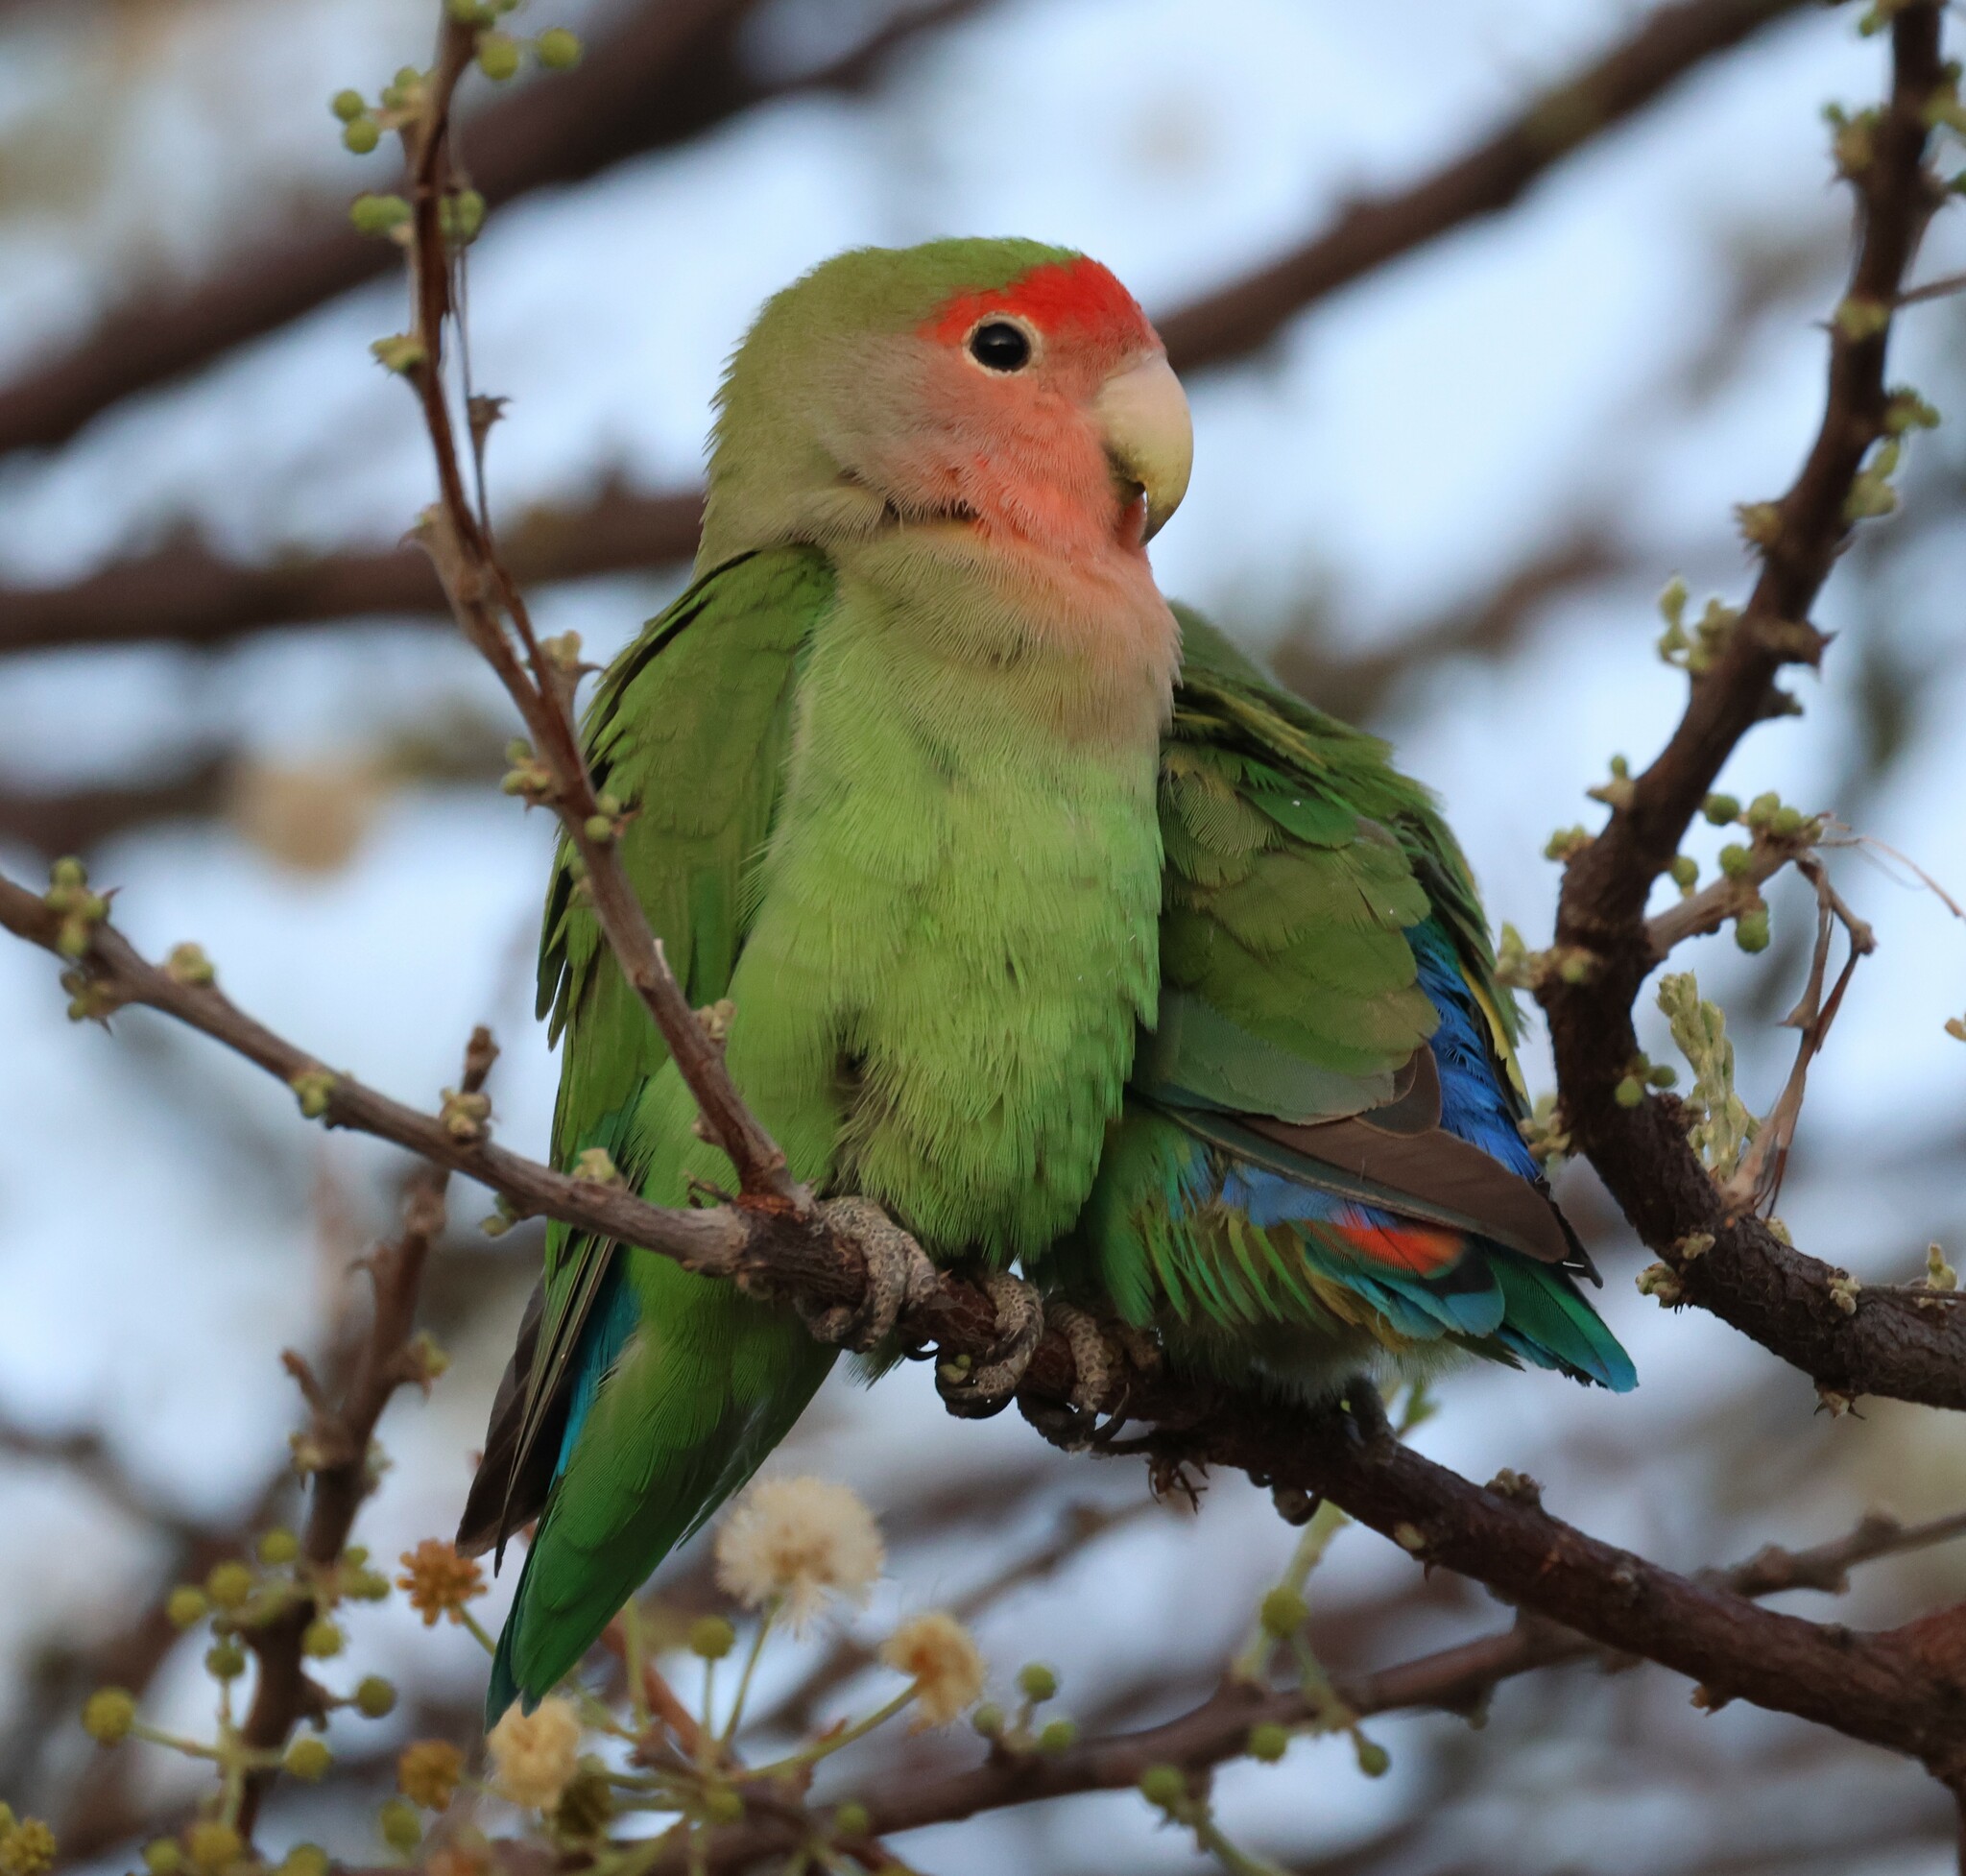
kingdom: Animalia
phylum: Chordata
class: Aves
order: Psittaciformes
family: Psittacidae
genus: Agapornis
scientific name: Agapornis roseicollis
